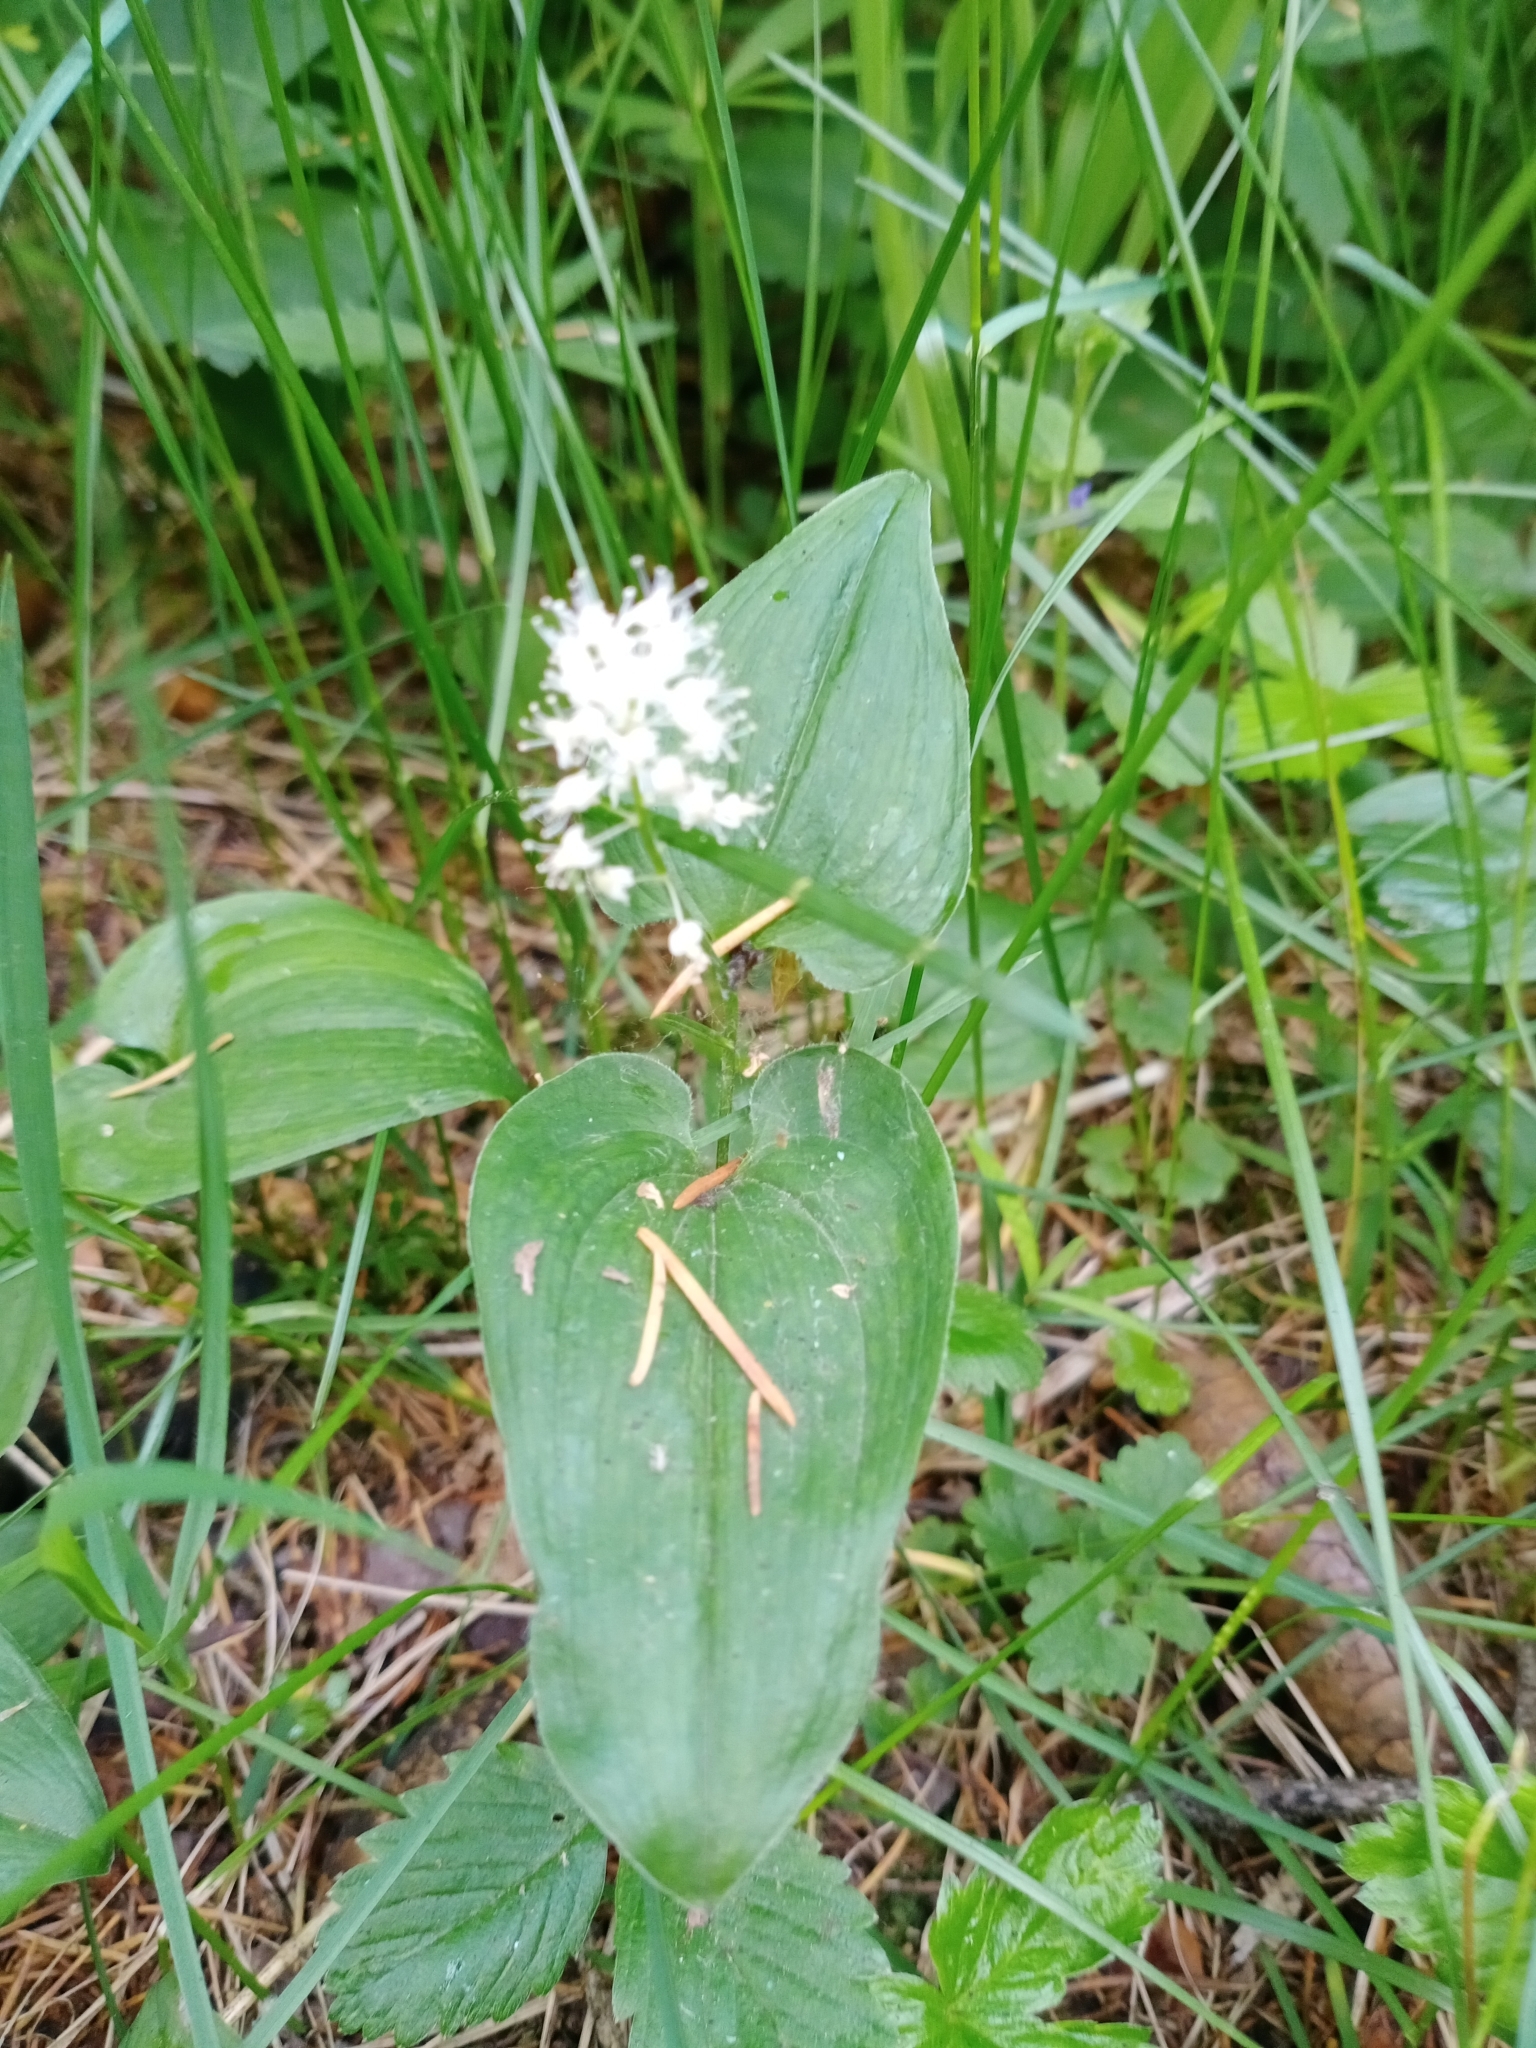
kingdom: Plantae
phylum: Tracheophyta
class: Liliopsida
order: Asparagales
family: Asparagaceae
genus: Maianthemum
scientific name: Maianthemum bifolium
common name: May lily
